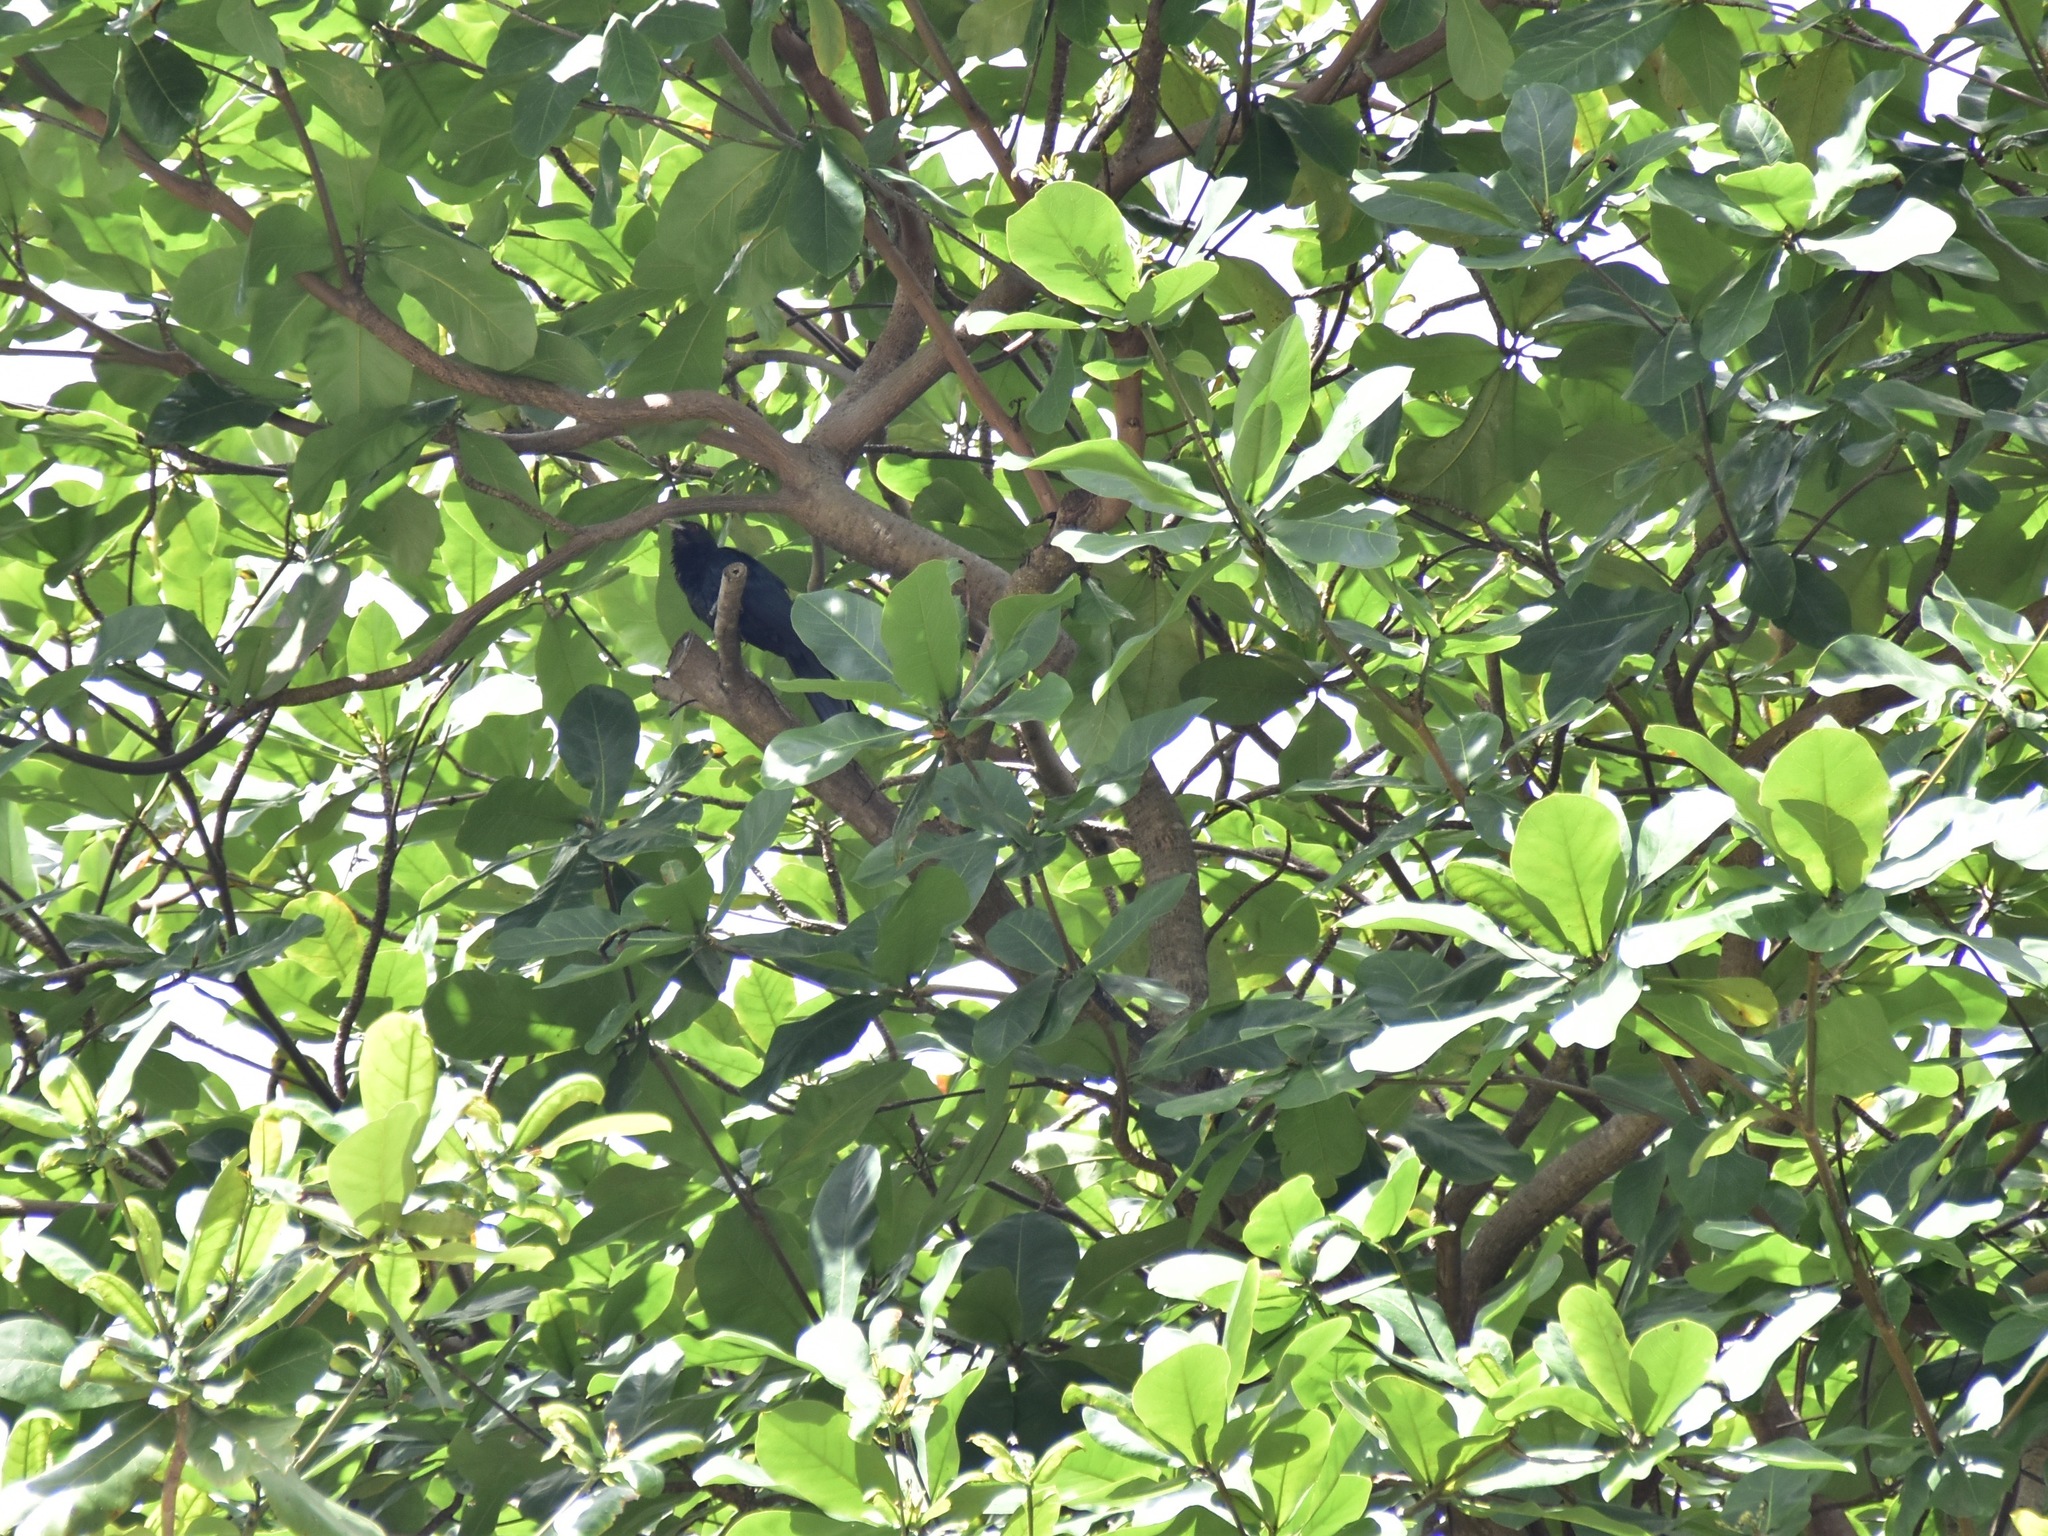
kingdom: Animalia
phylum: Chordata
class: Aves
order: Cuculiformes
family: Cuculidae
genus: Eudynamys
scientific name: Eudynamys scolopaceus
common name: Asian koel
